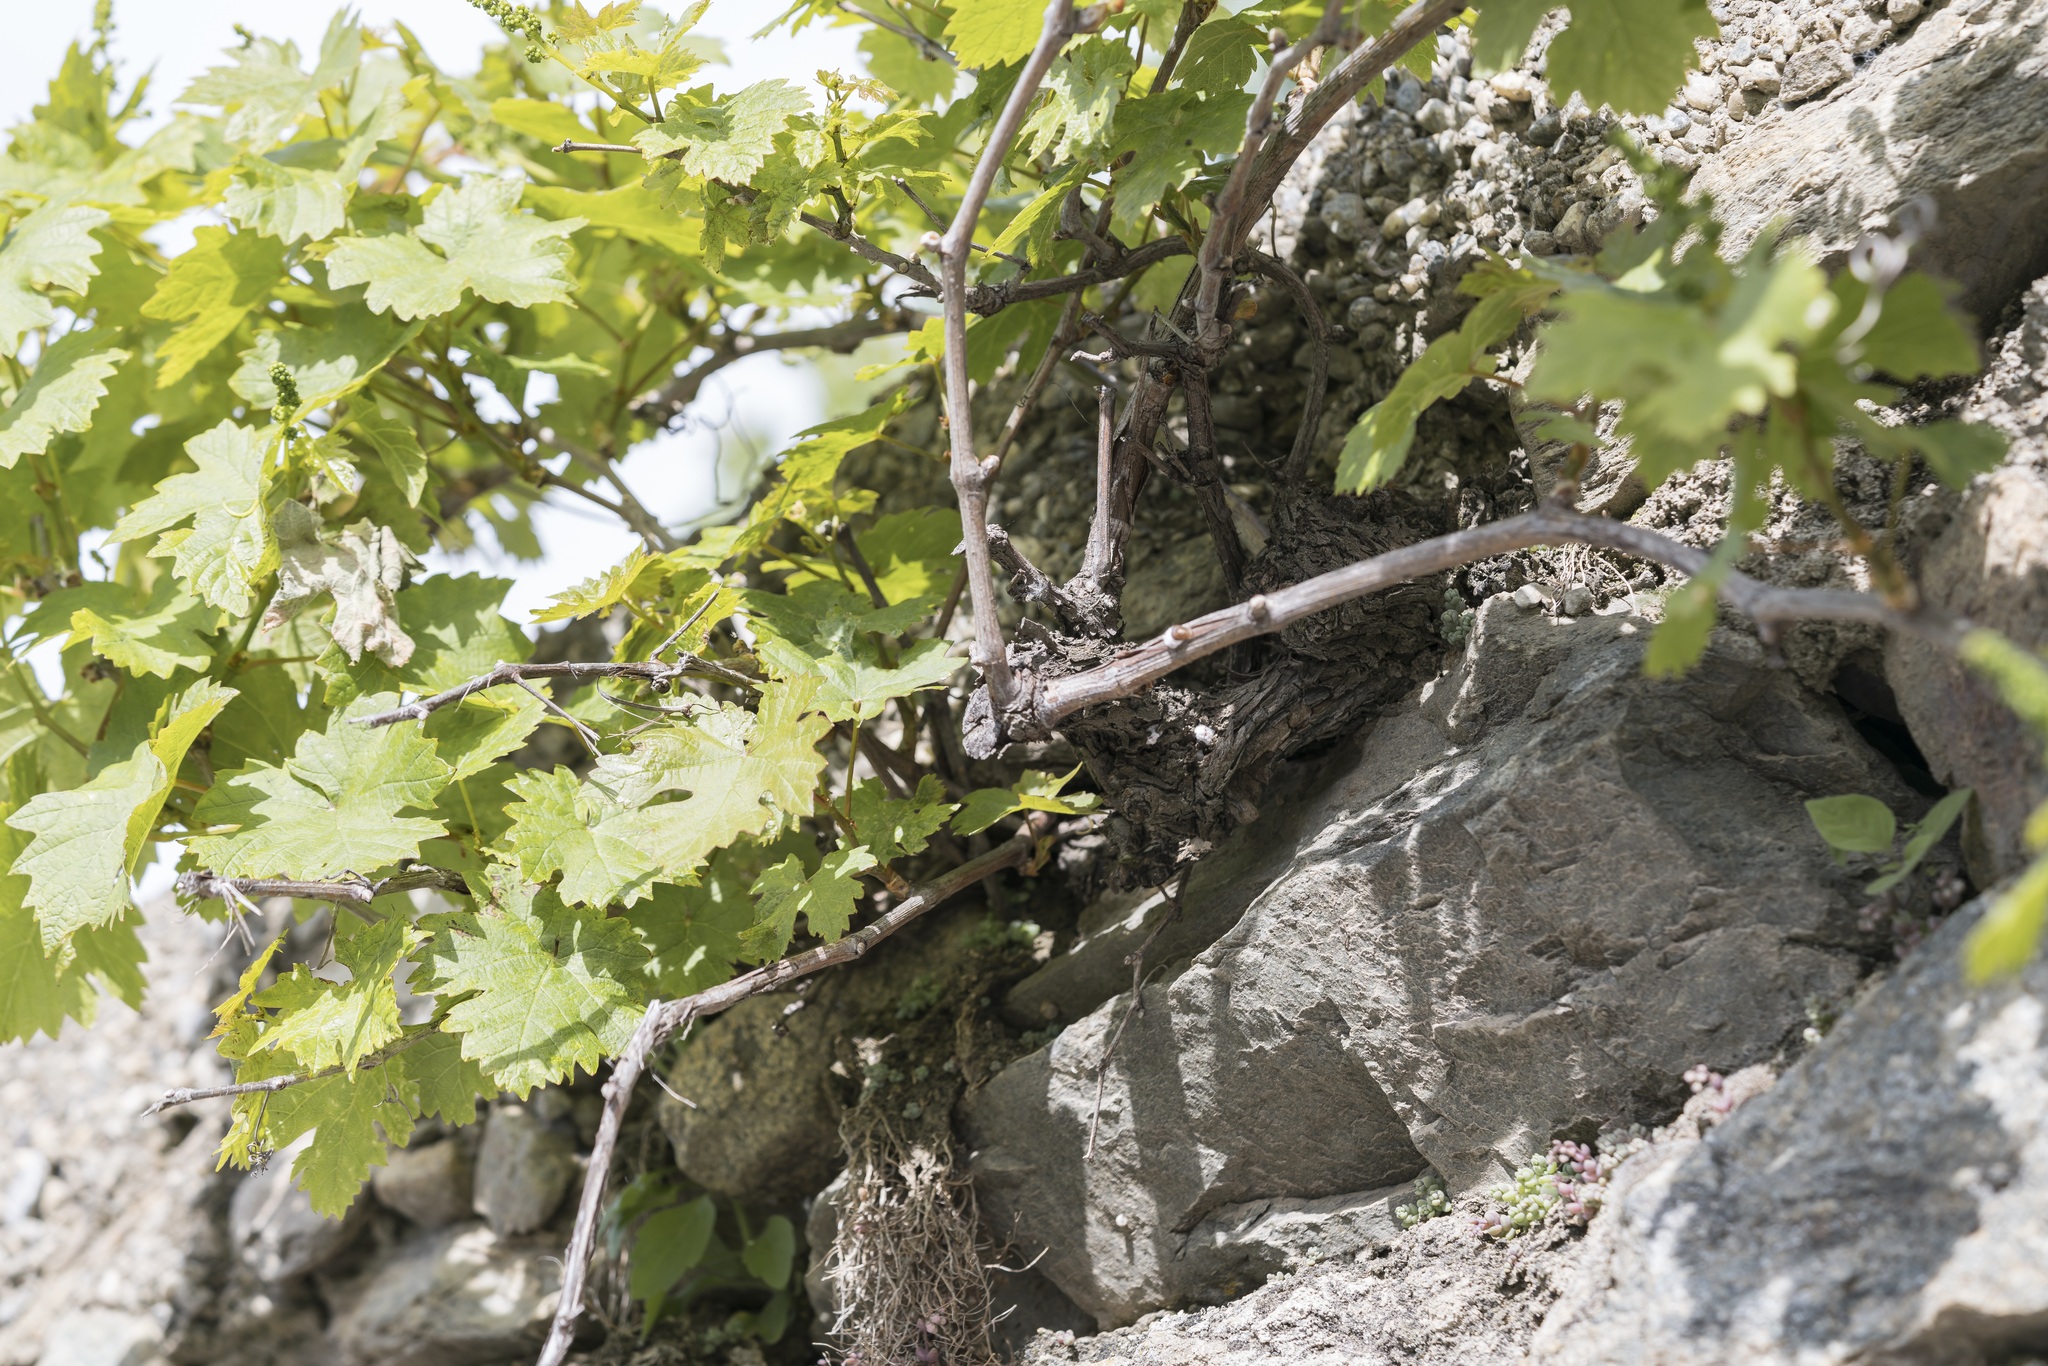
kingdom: Plantae
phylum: Tracheophyta
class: Magnoliopsida
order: Vitales
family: Vitaceae
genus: Vitis
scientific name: Vitis vinifera
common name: Grape-vine
